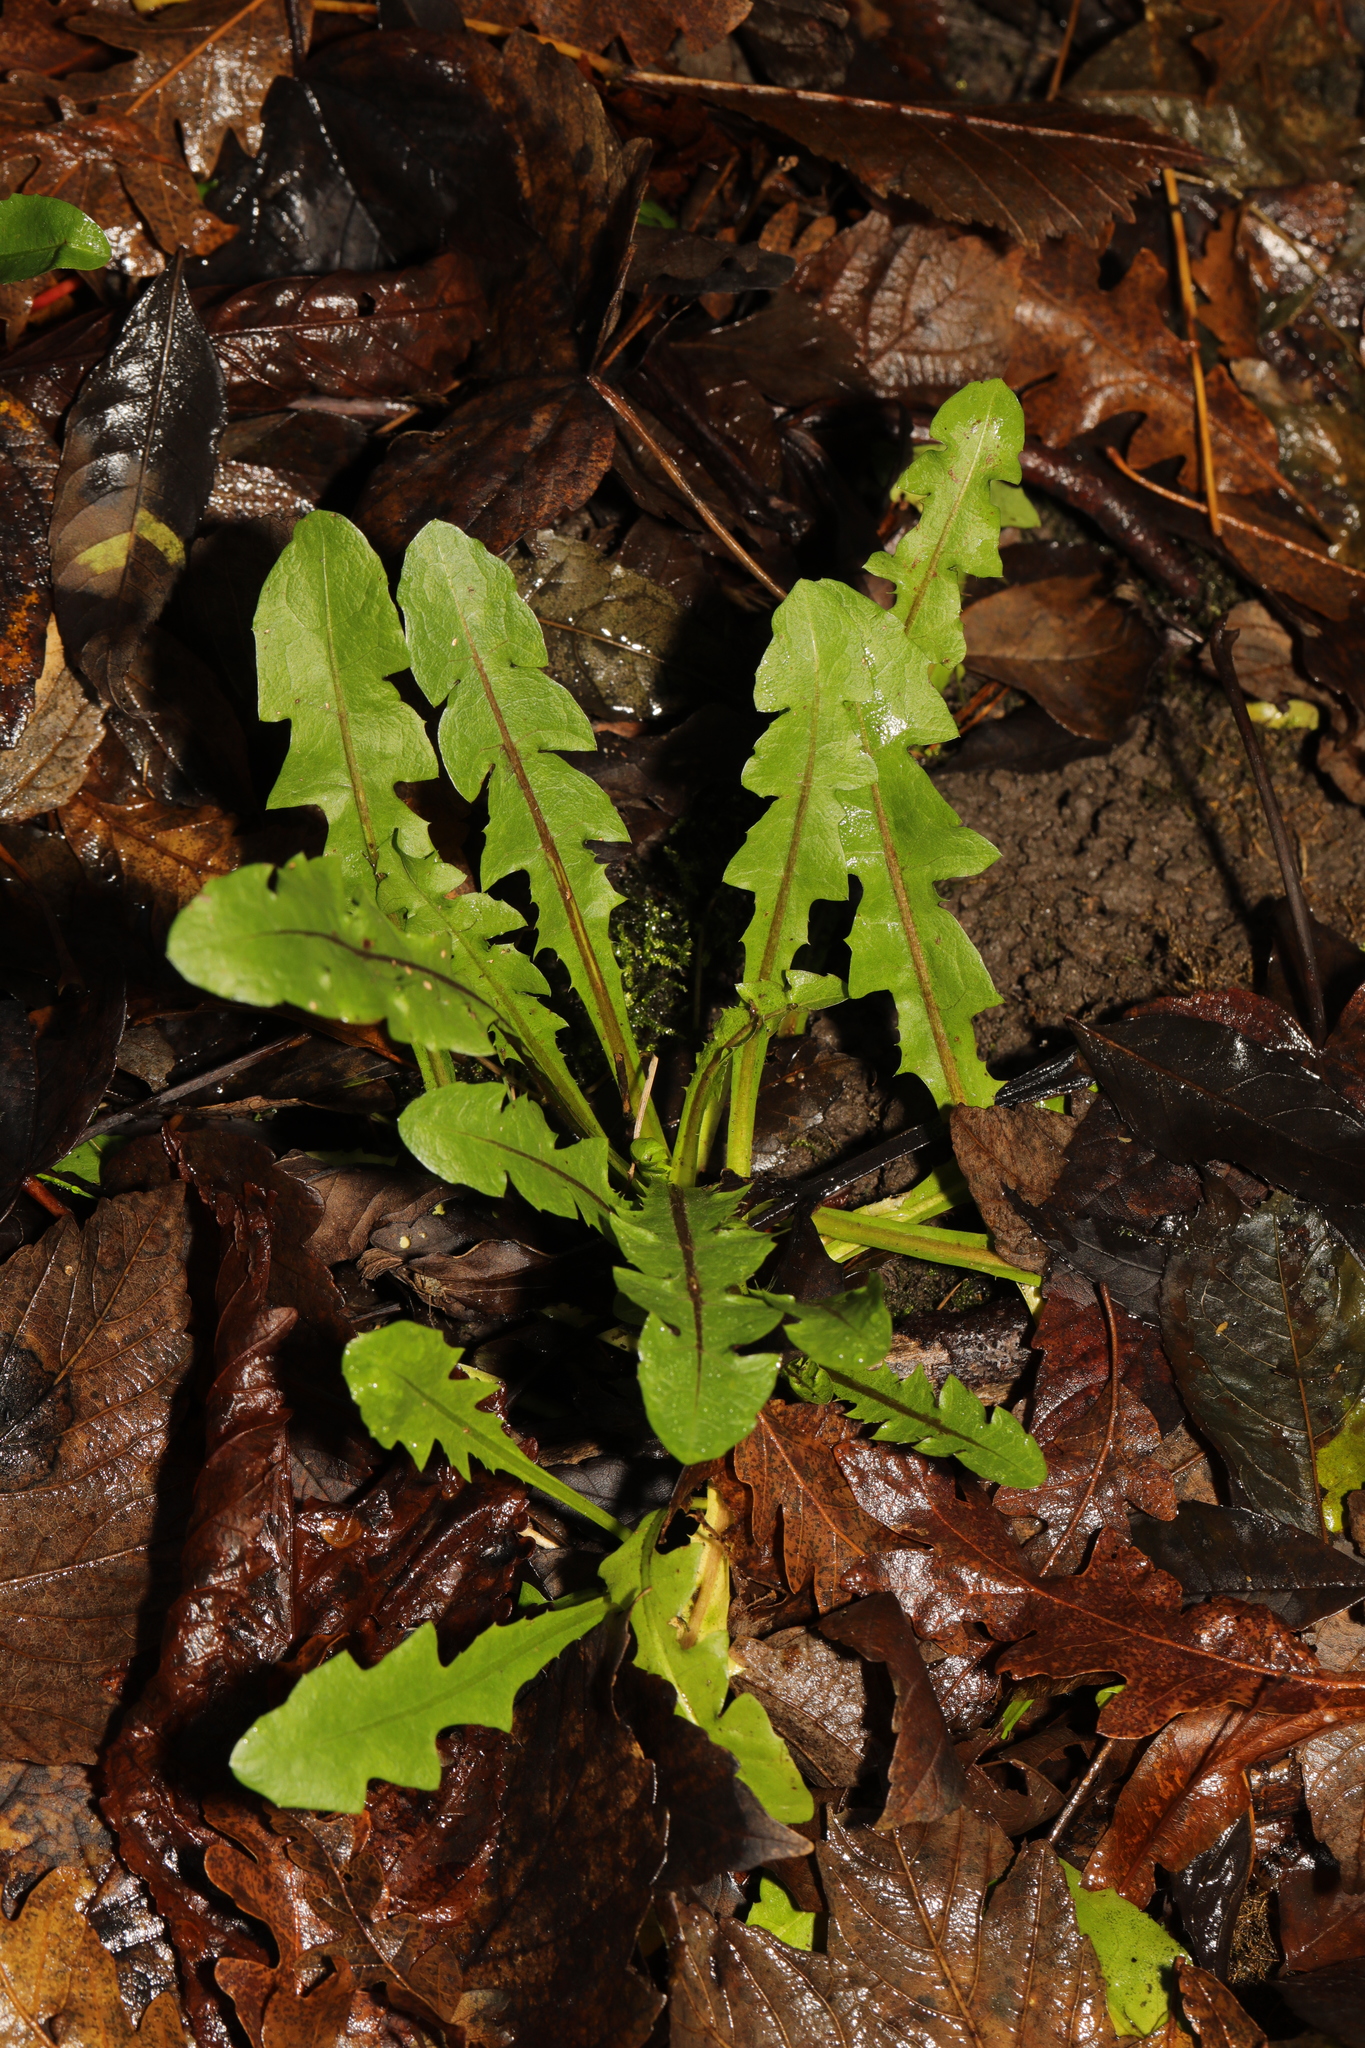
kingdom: Plantae
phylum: Tracheophyta
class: Magnoliopsida
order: Asterales
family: Asteraceae
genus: Taraxacum
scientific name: Taraxacum officinale
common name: Common dandelion
